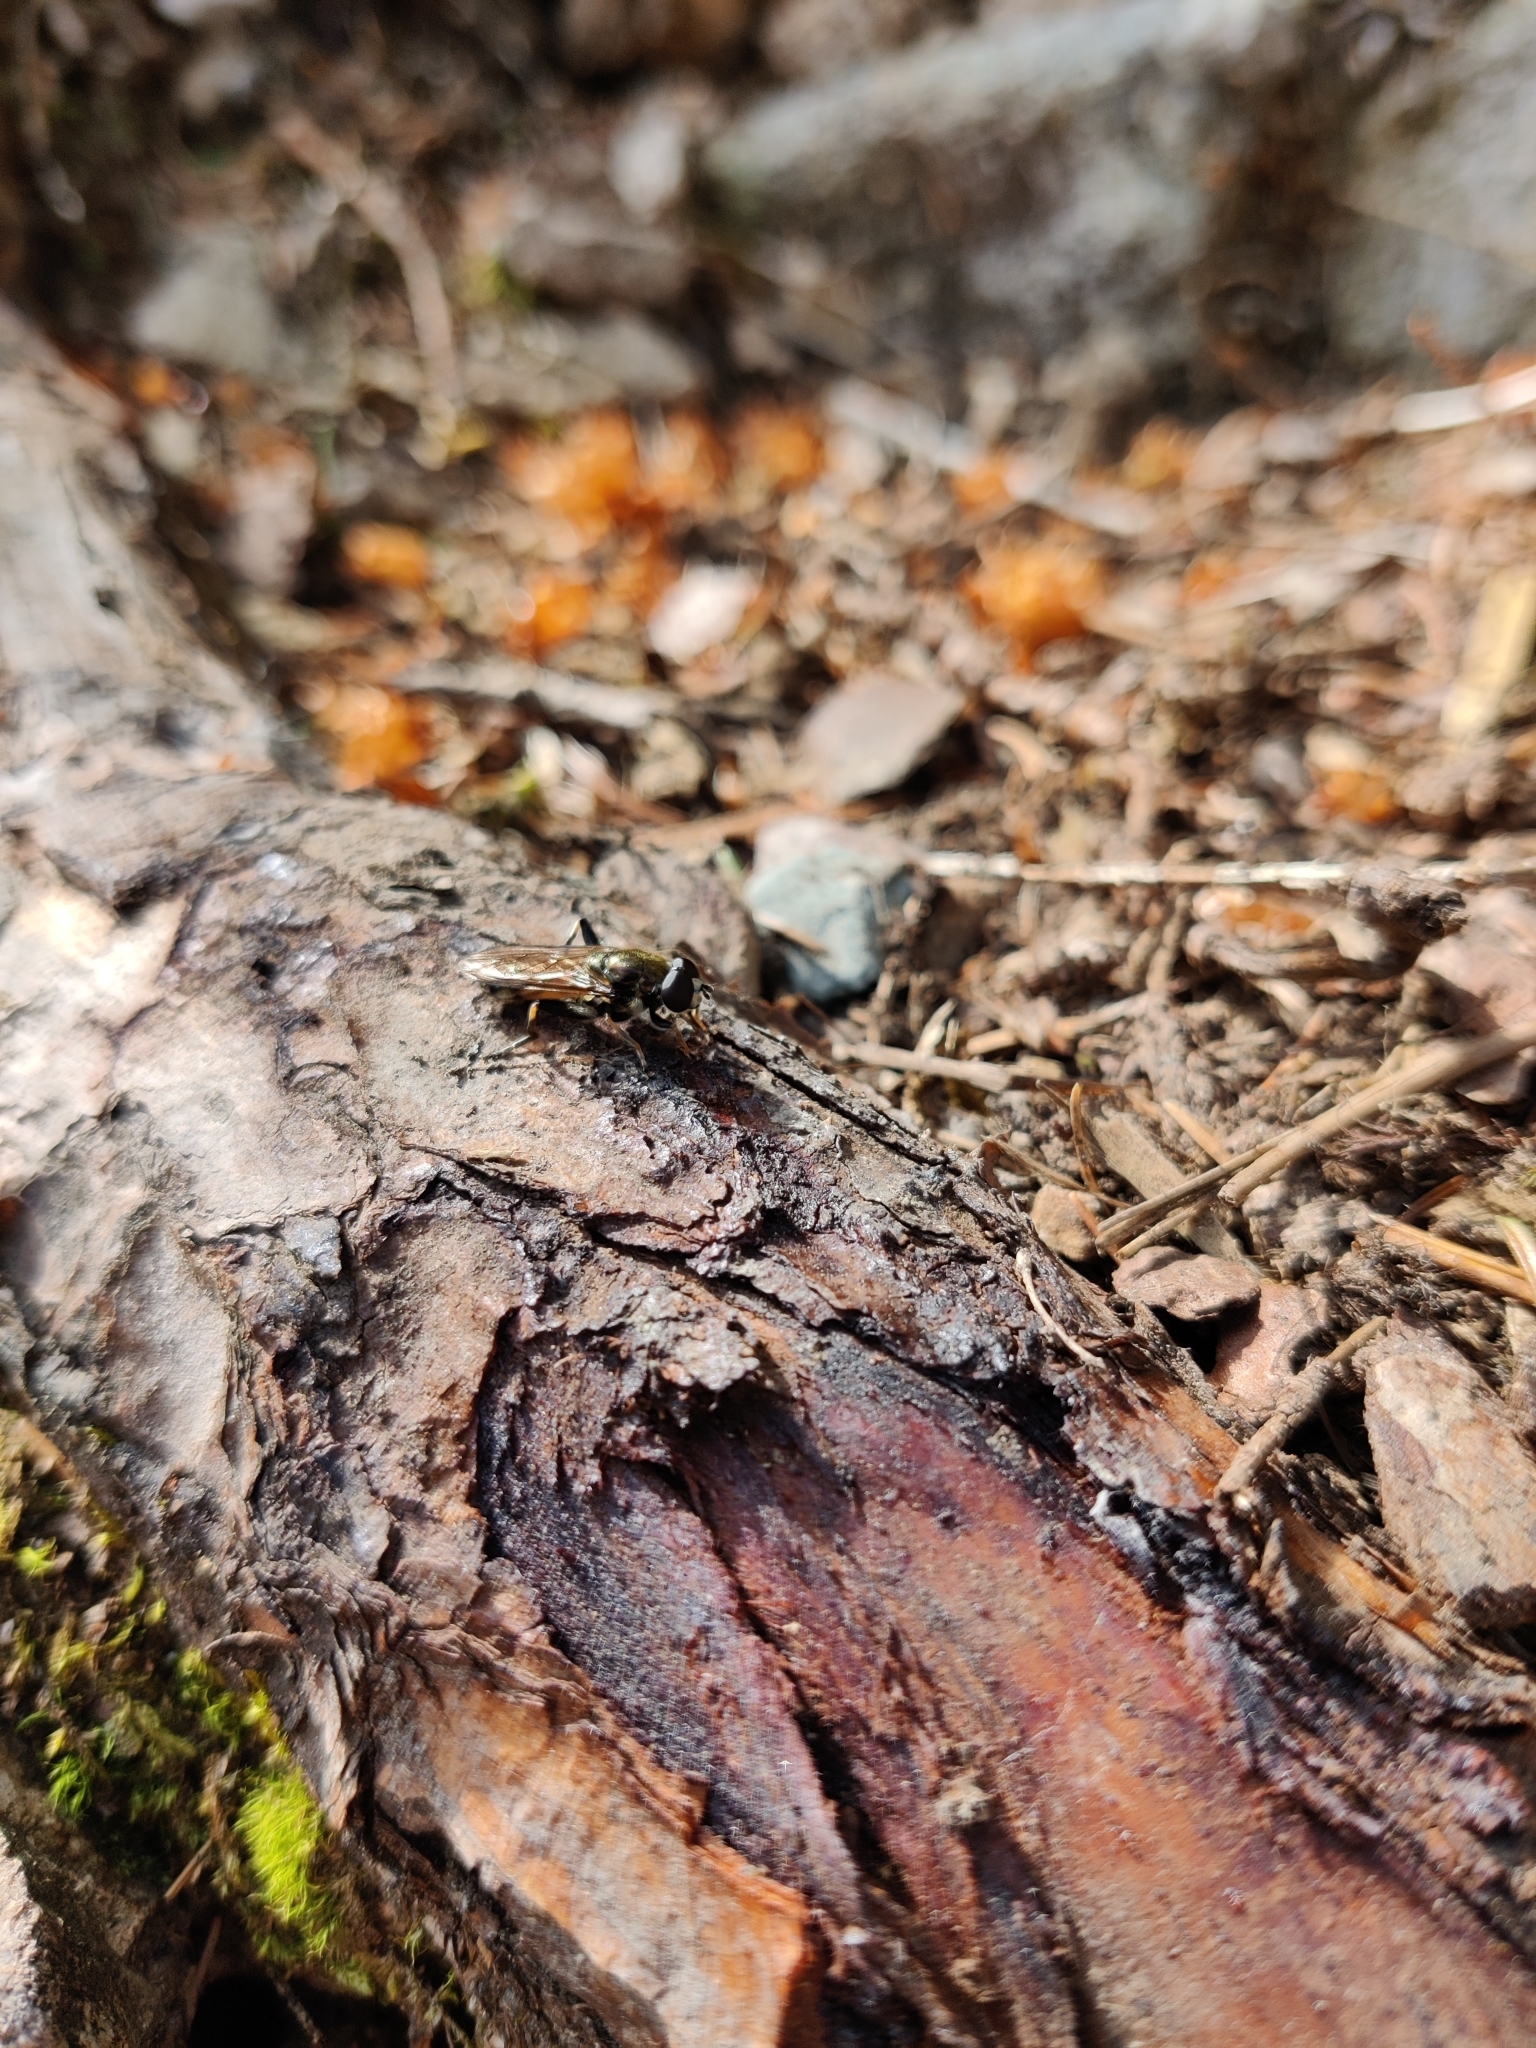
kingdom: Animalia
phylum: Arthropoda
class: Insecta
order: Diptera
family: Syrphidae
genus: Xylota
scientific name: Xylota segnis
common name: Brown-toed forest fly
